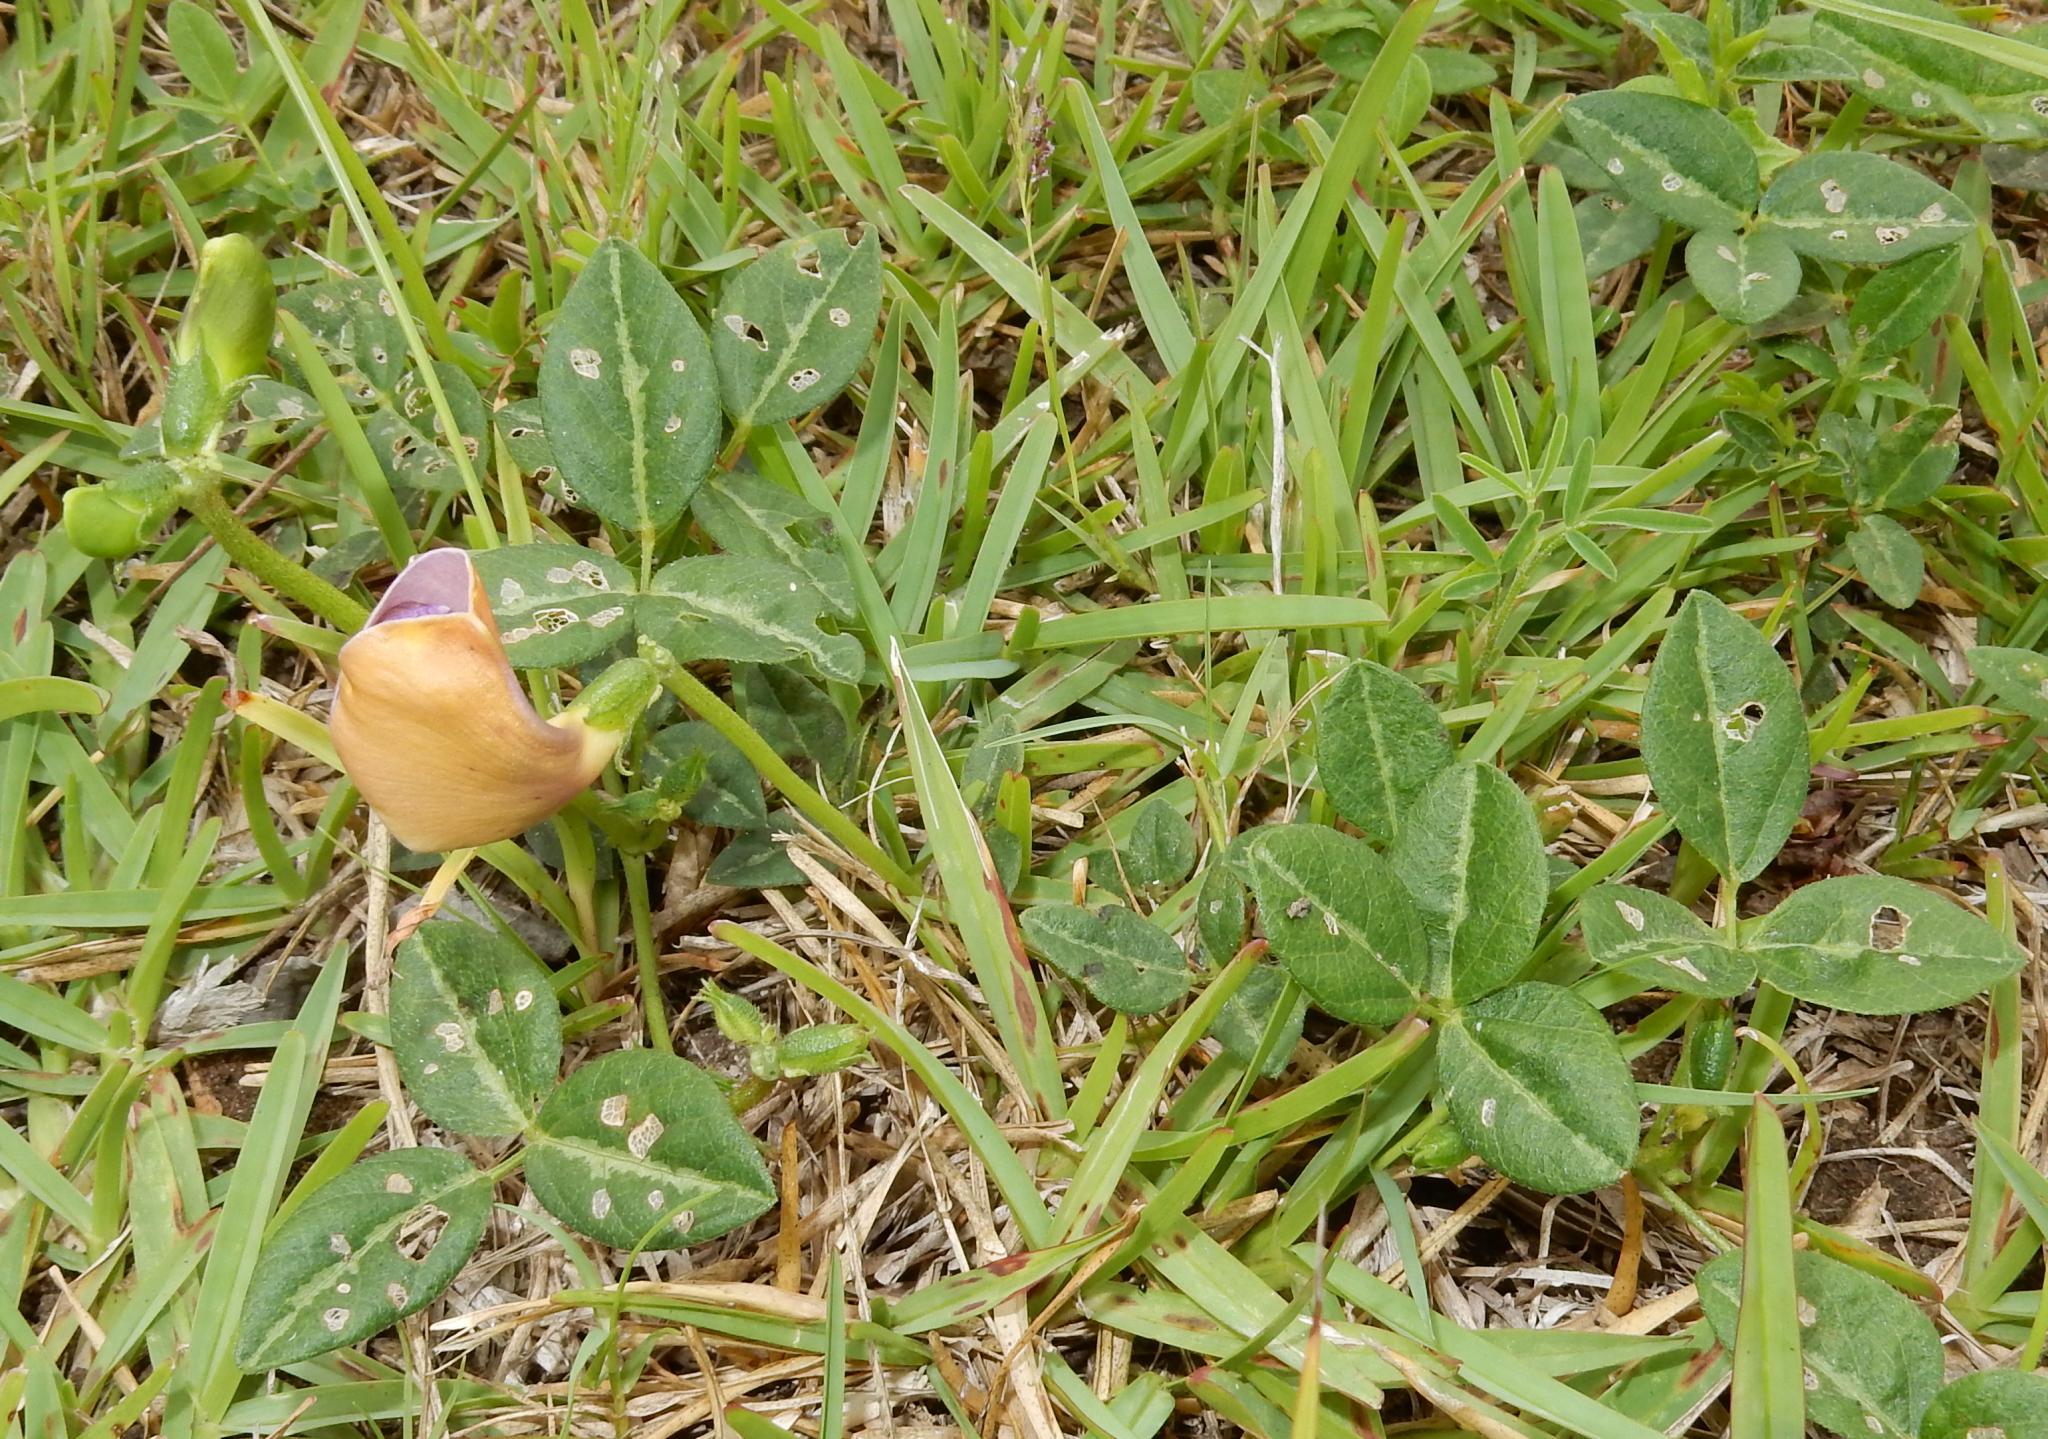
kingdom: Plantae
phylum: Tracheophyta
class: Magnoliopsida
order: Fabales
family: Fabaceae
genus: Vigna
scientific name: Vigna vexillata
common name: Zombi pea
